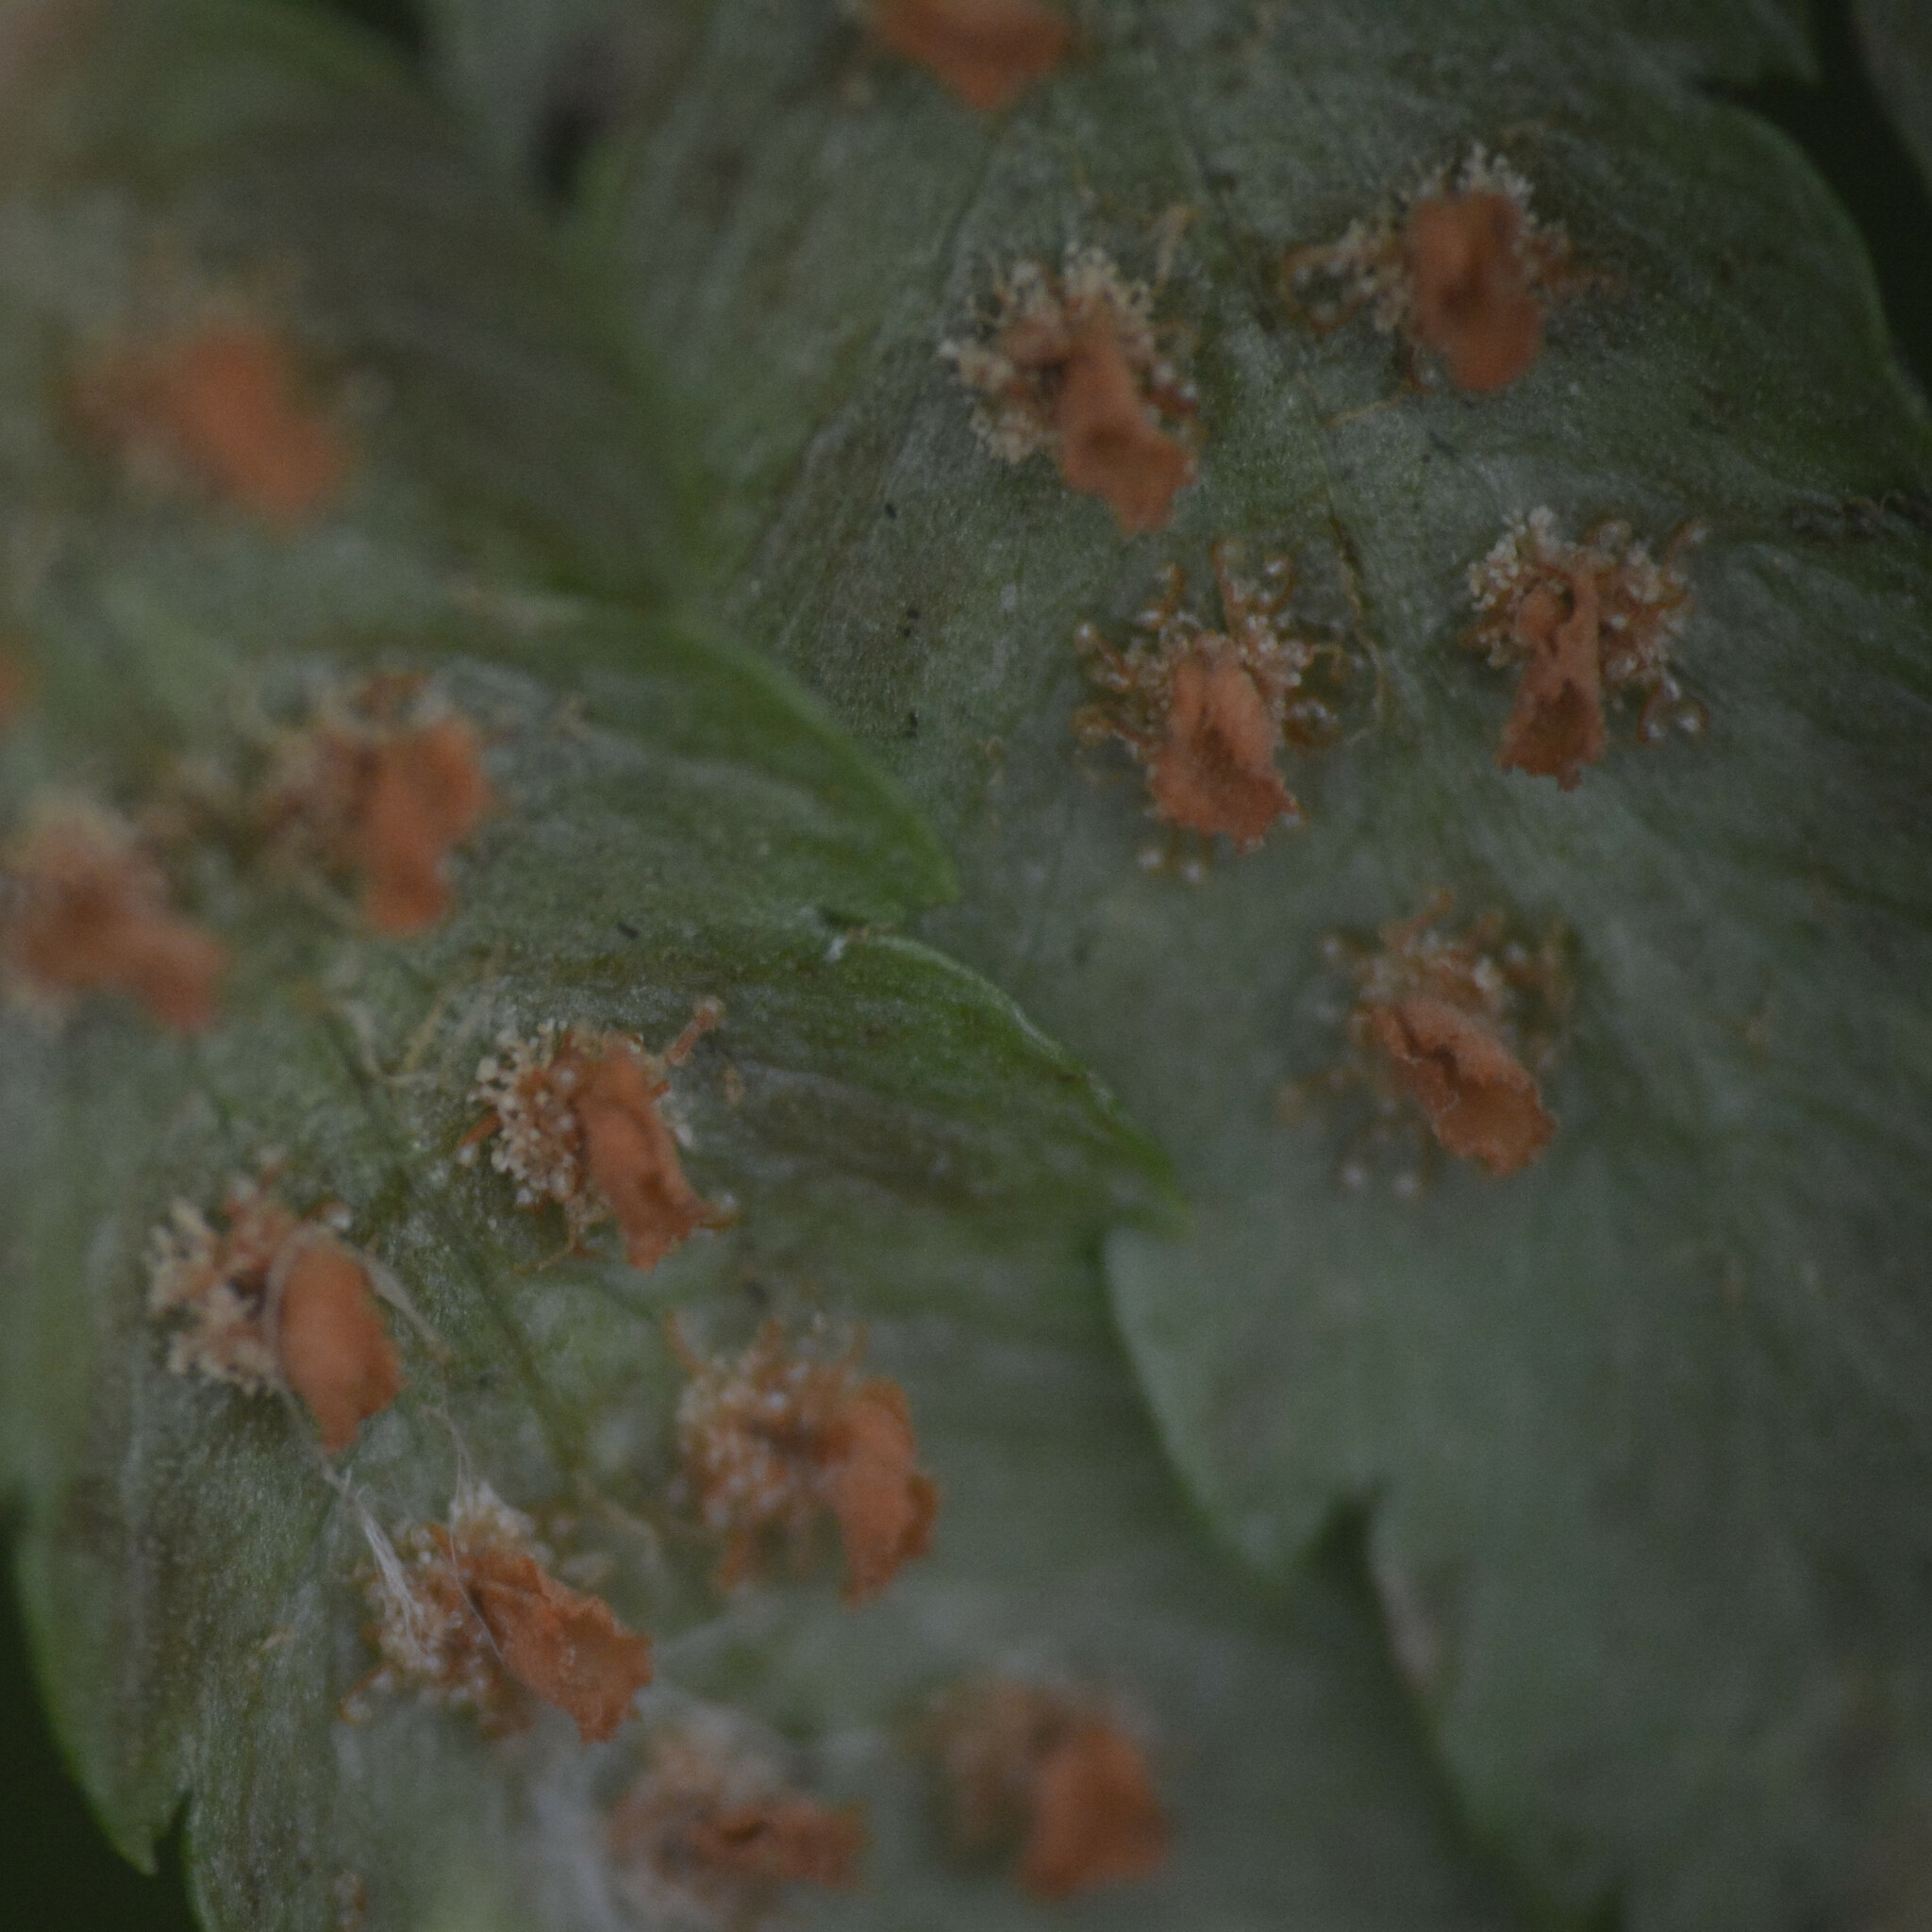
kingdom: Plantae
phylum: Tracheophyta
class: Polypodiopsida
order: Polypodiales
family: Dryopteridaceae
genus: Dryopteris
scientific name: Dryopteris filix-mas
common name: Male fern
